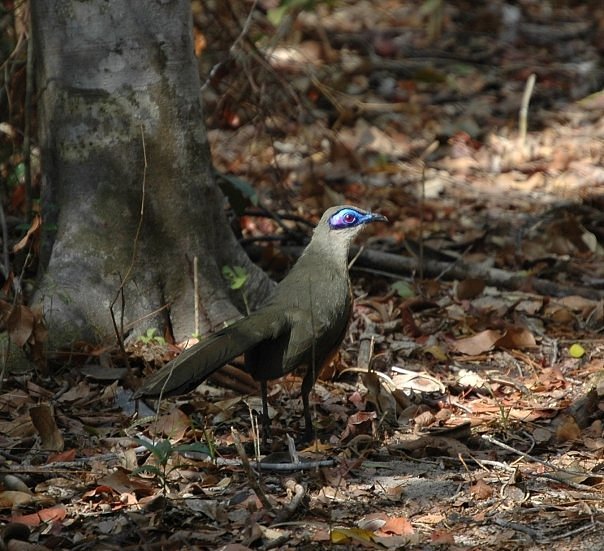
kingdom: Animalia
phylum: Chordata
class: Aves
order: Cuculiformes
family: Cuculidae
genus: Coua
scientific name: Coua coquereli
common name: Coquerel's coua
